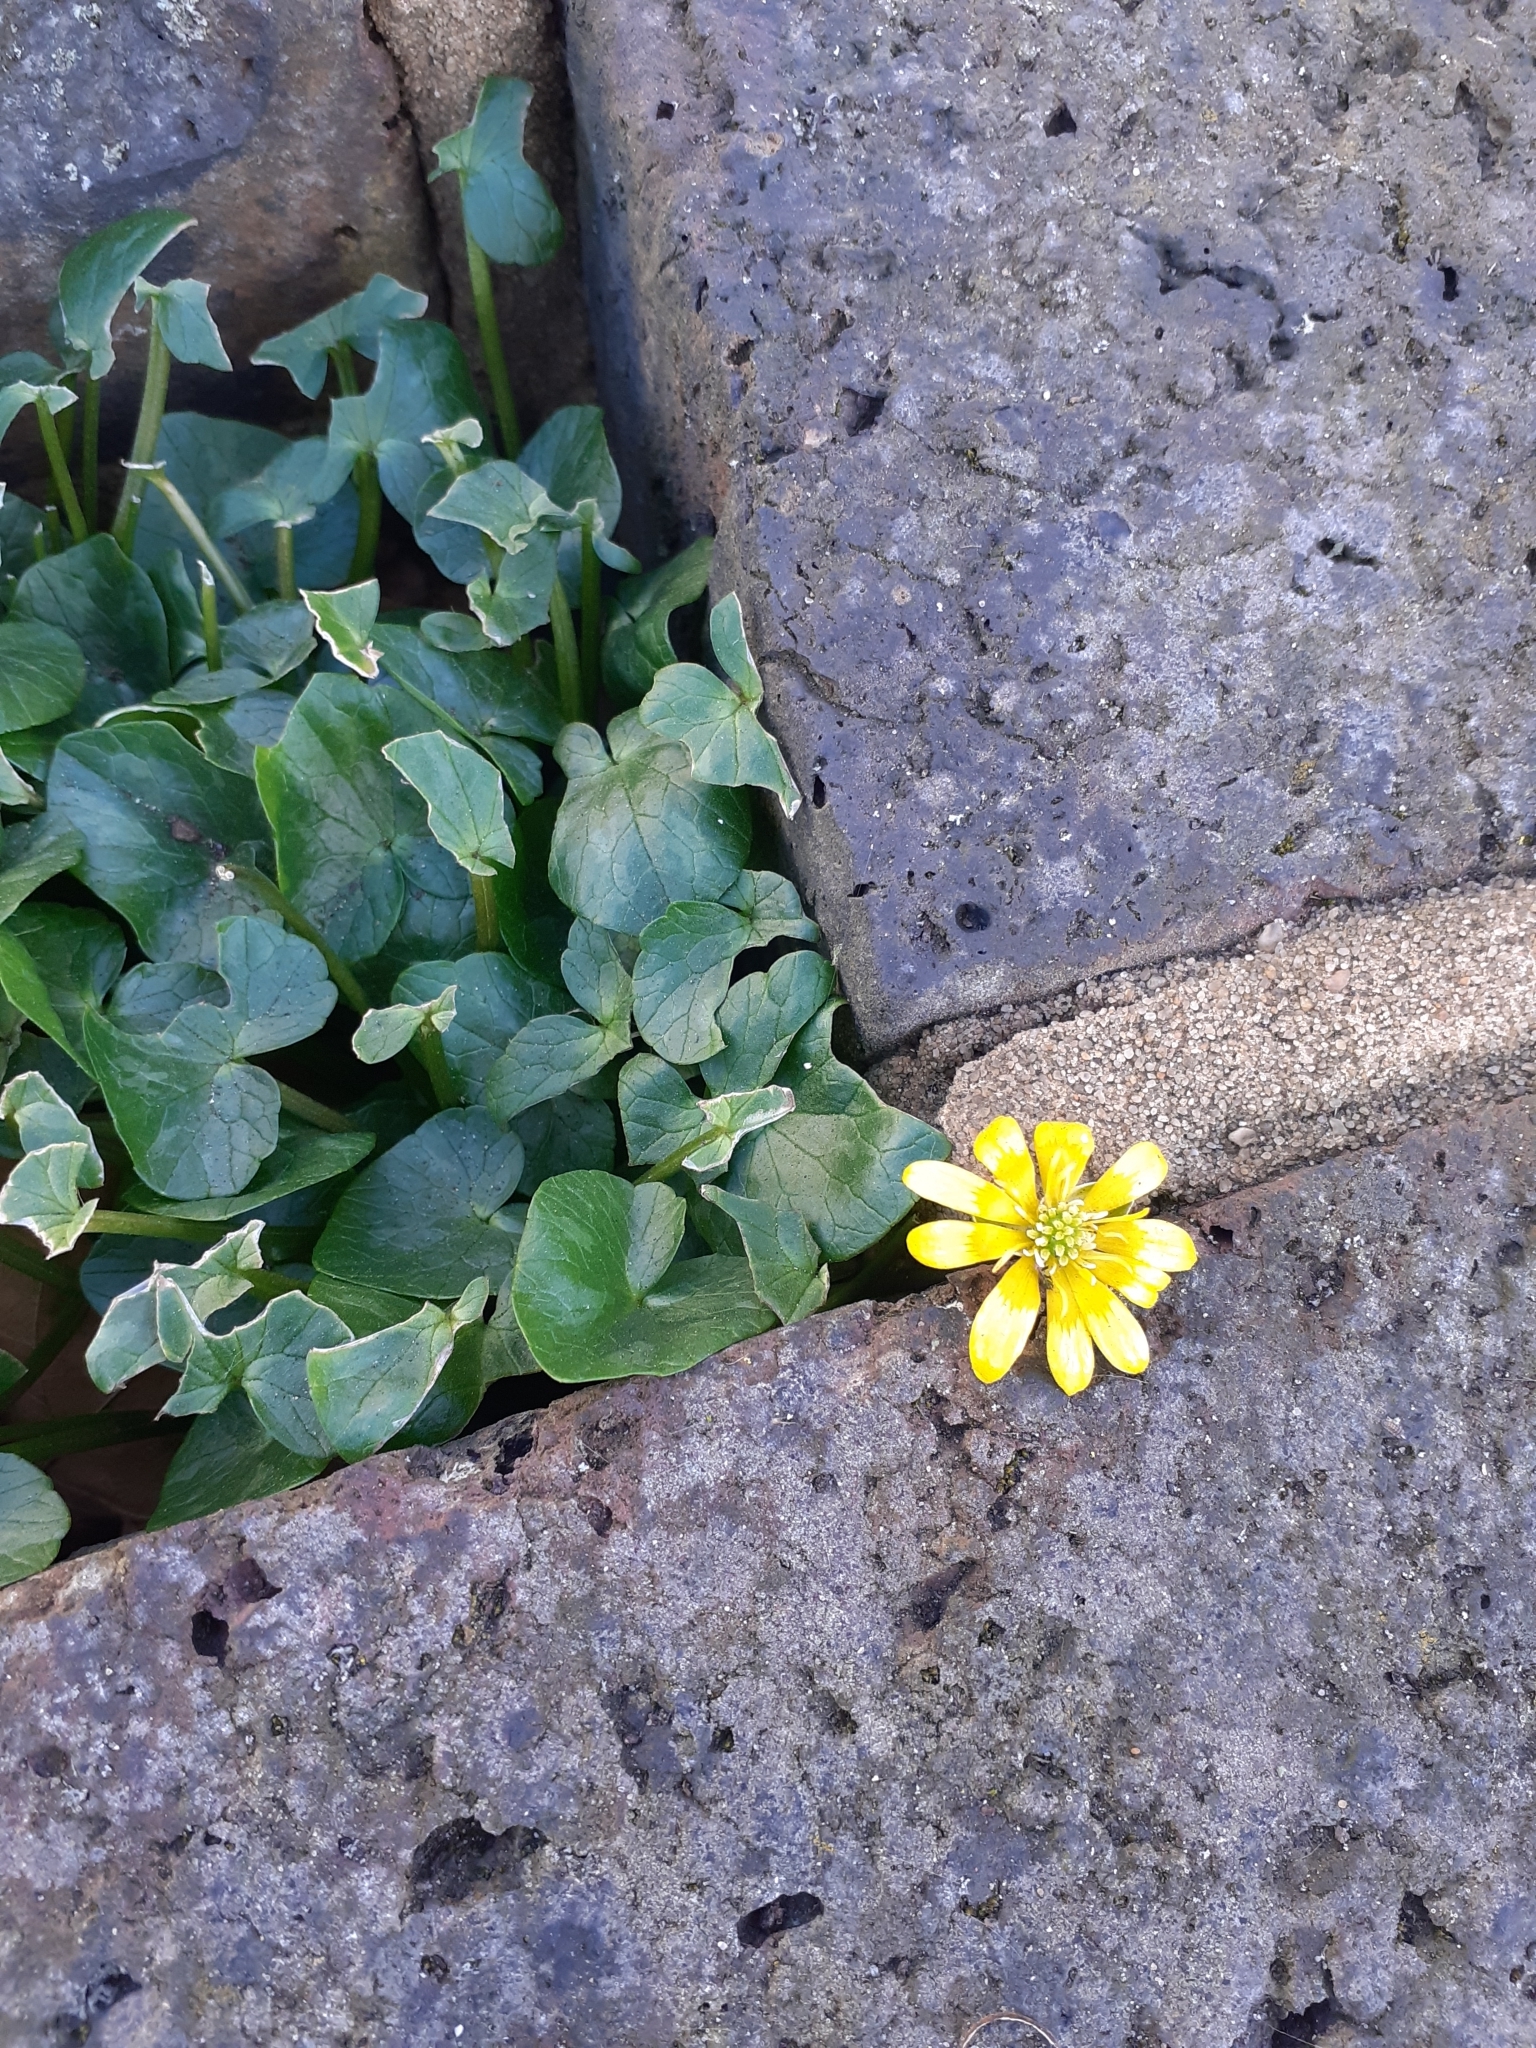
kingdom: Plantae
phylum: Tracheophyta
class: Magnoliopsida
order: Ranunculales
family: Ranunculaceae
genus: Ficaria
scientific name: Ficaria verna
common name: Lesser celandine
